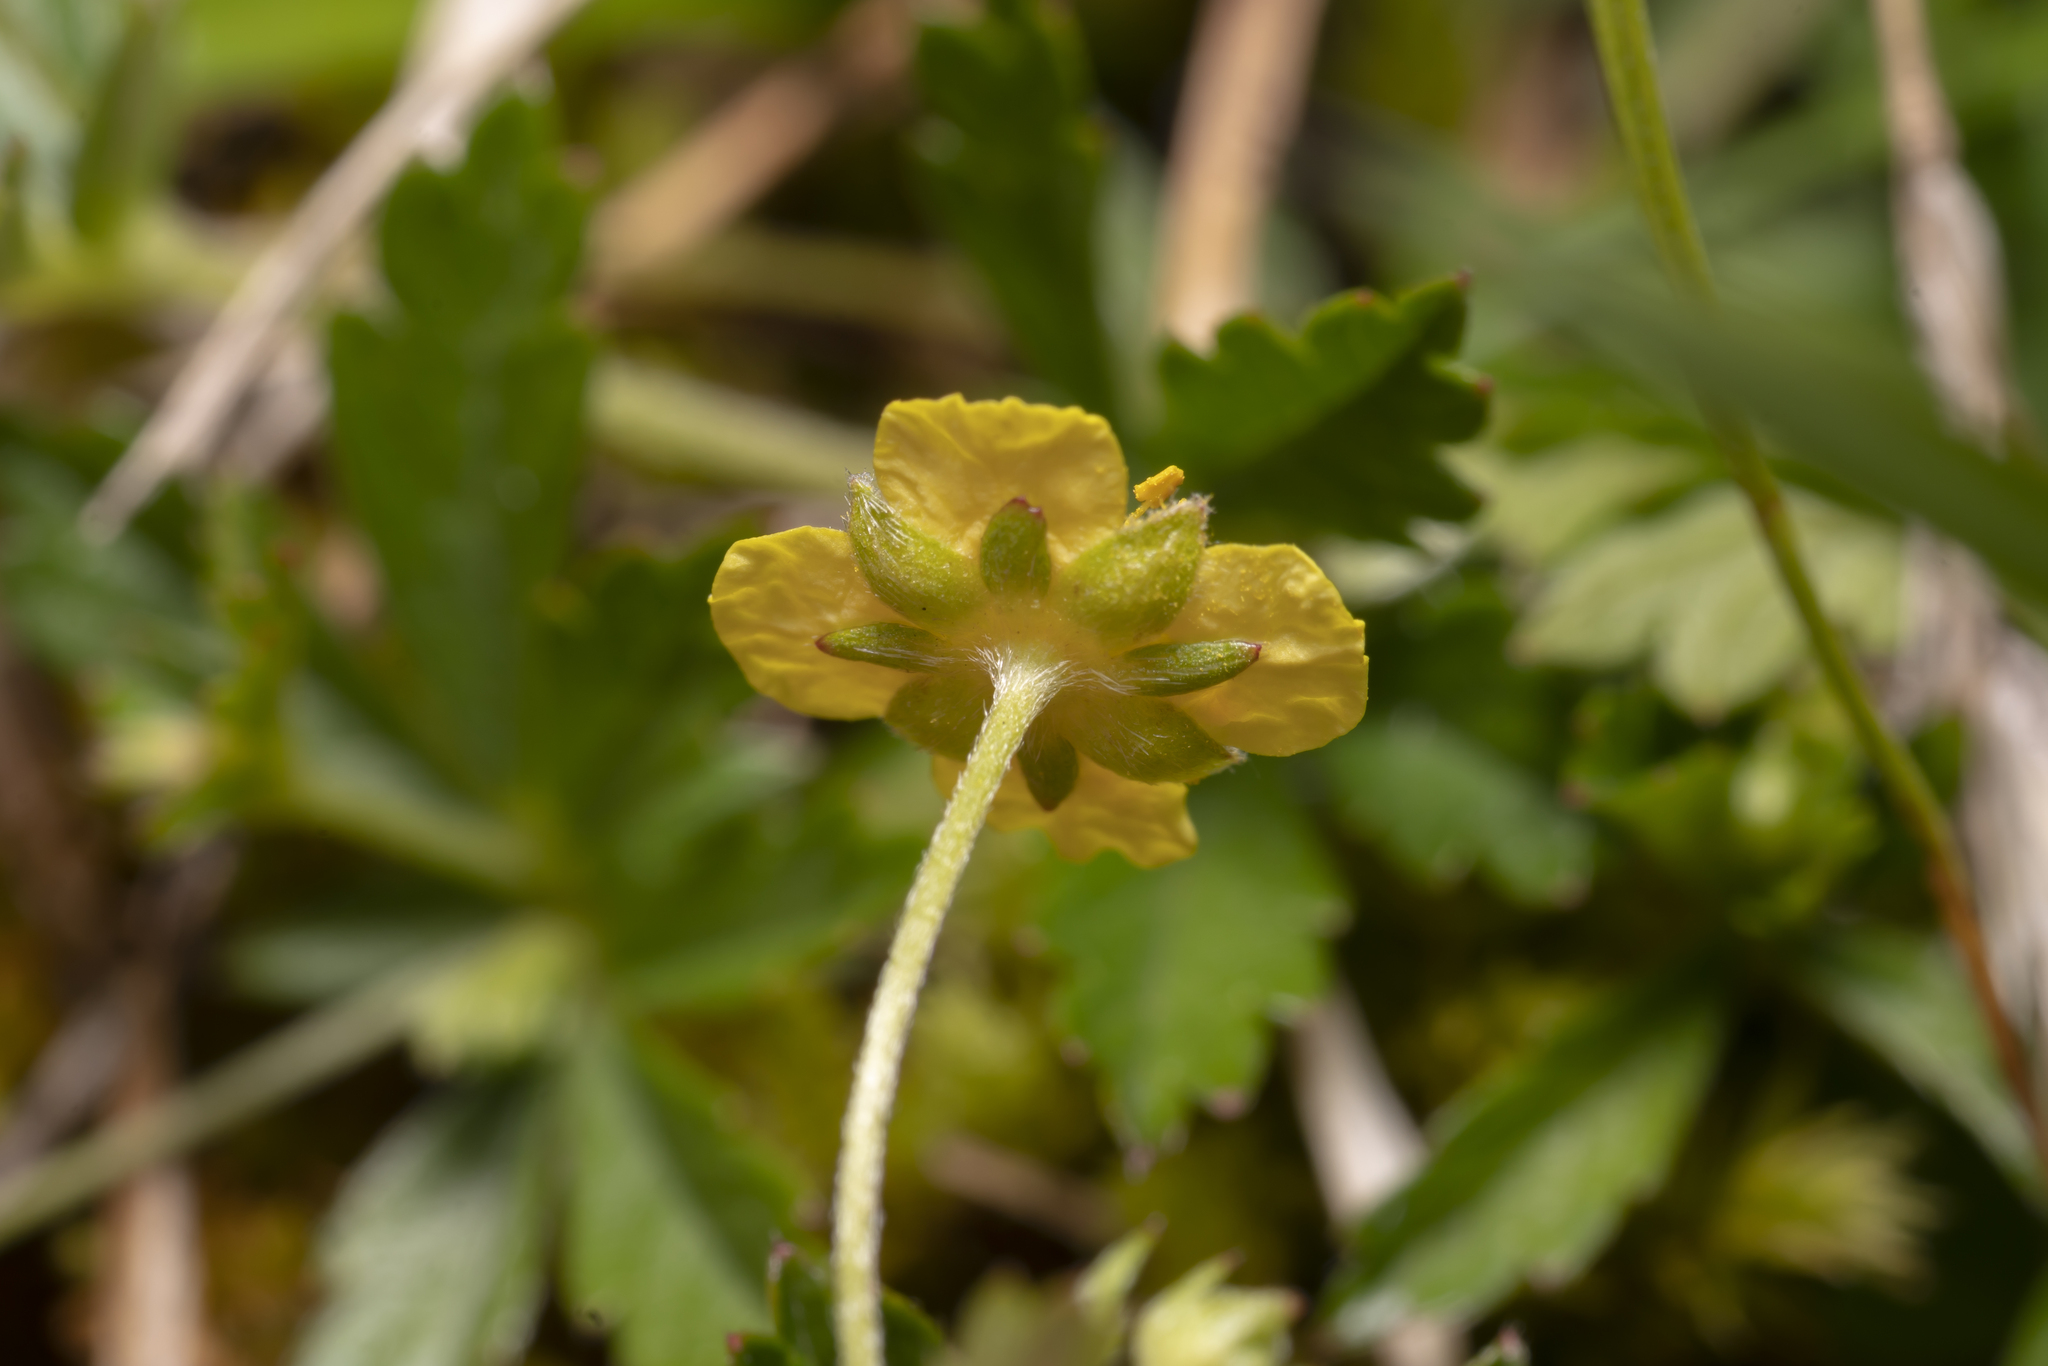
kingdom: Plantae
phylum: Tracheophyta
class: Magnoliopsida
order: Rosales
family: Rosaceae
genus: Potentilla
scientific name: Potentilla erecta
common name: Tormentil
